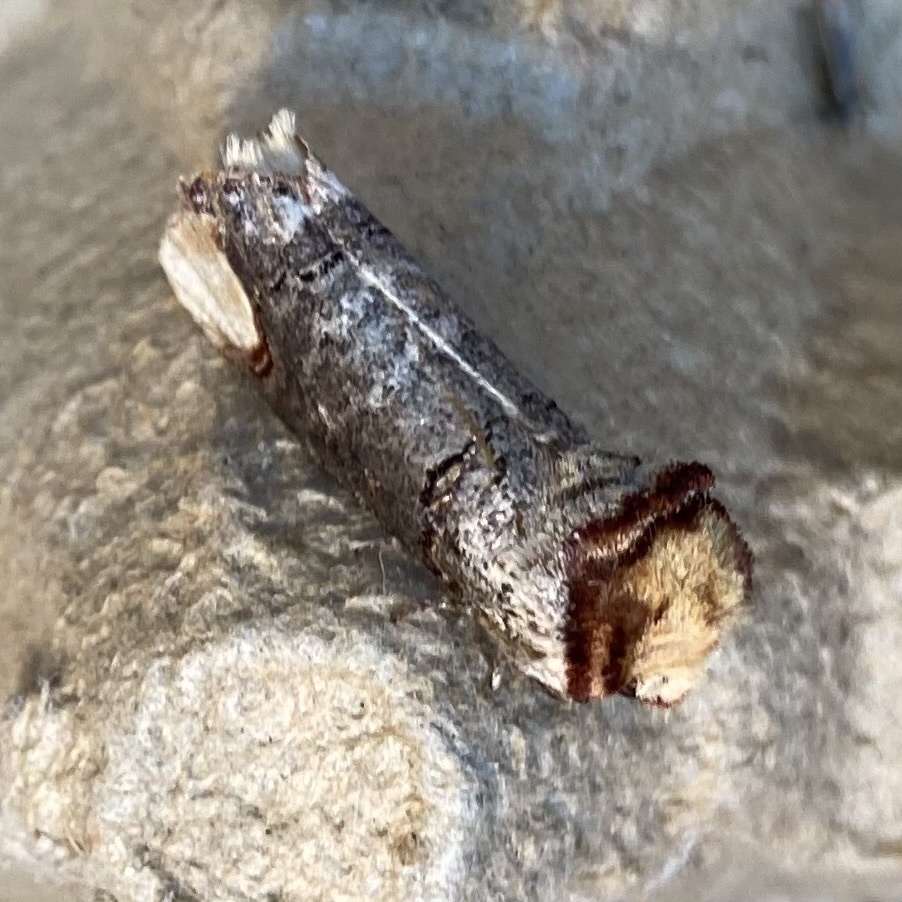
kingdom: Animalia
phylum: Arthropoda
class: Insecta
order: Lepidoptera
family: Notodontidae
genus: Phalera
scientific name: Phalera bucephala
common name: Buff-tip
